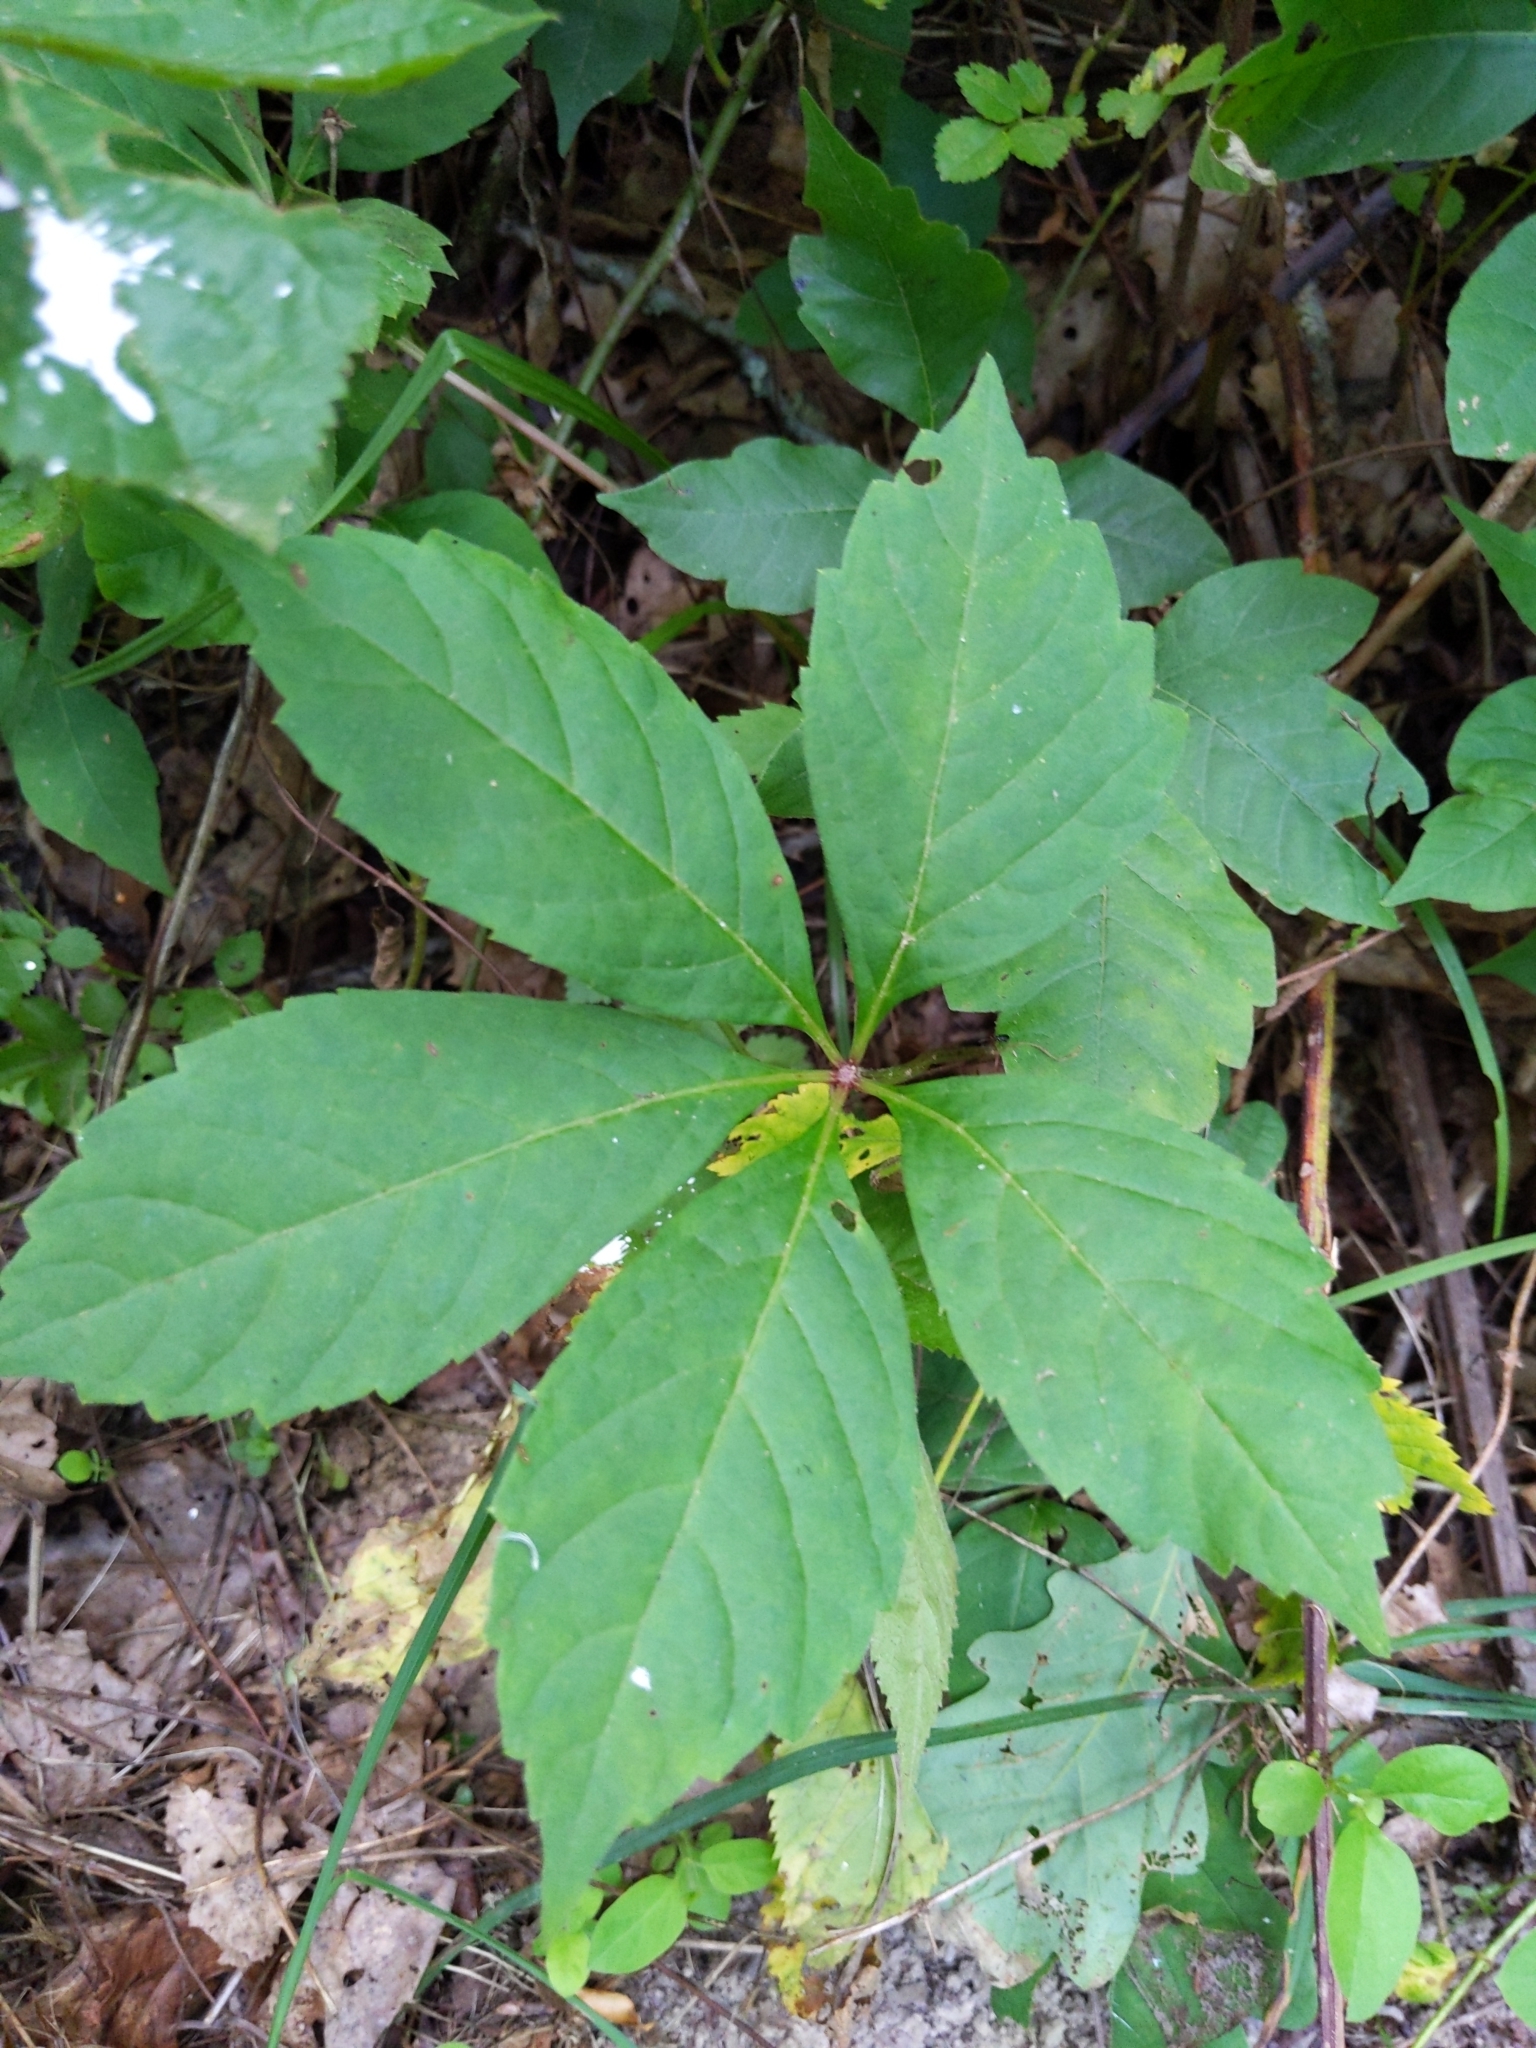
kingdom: Plantae
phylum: Tracheophyta
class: Magnoliopsida
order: Vitales
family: Vitaceae
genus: Parthenocissus
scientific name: Parthenocissus quinquefolia
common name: Virginia-creeper
